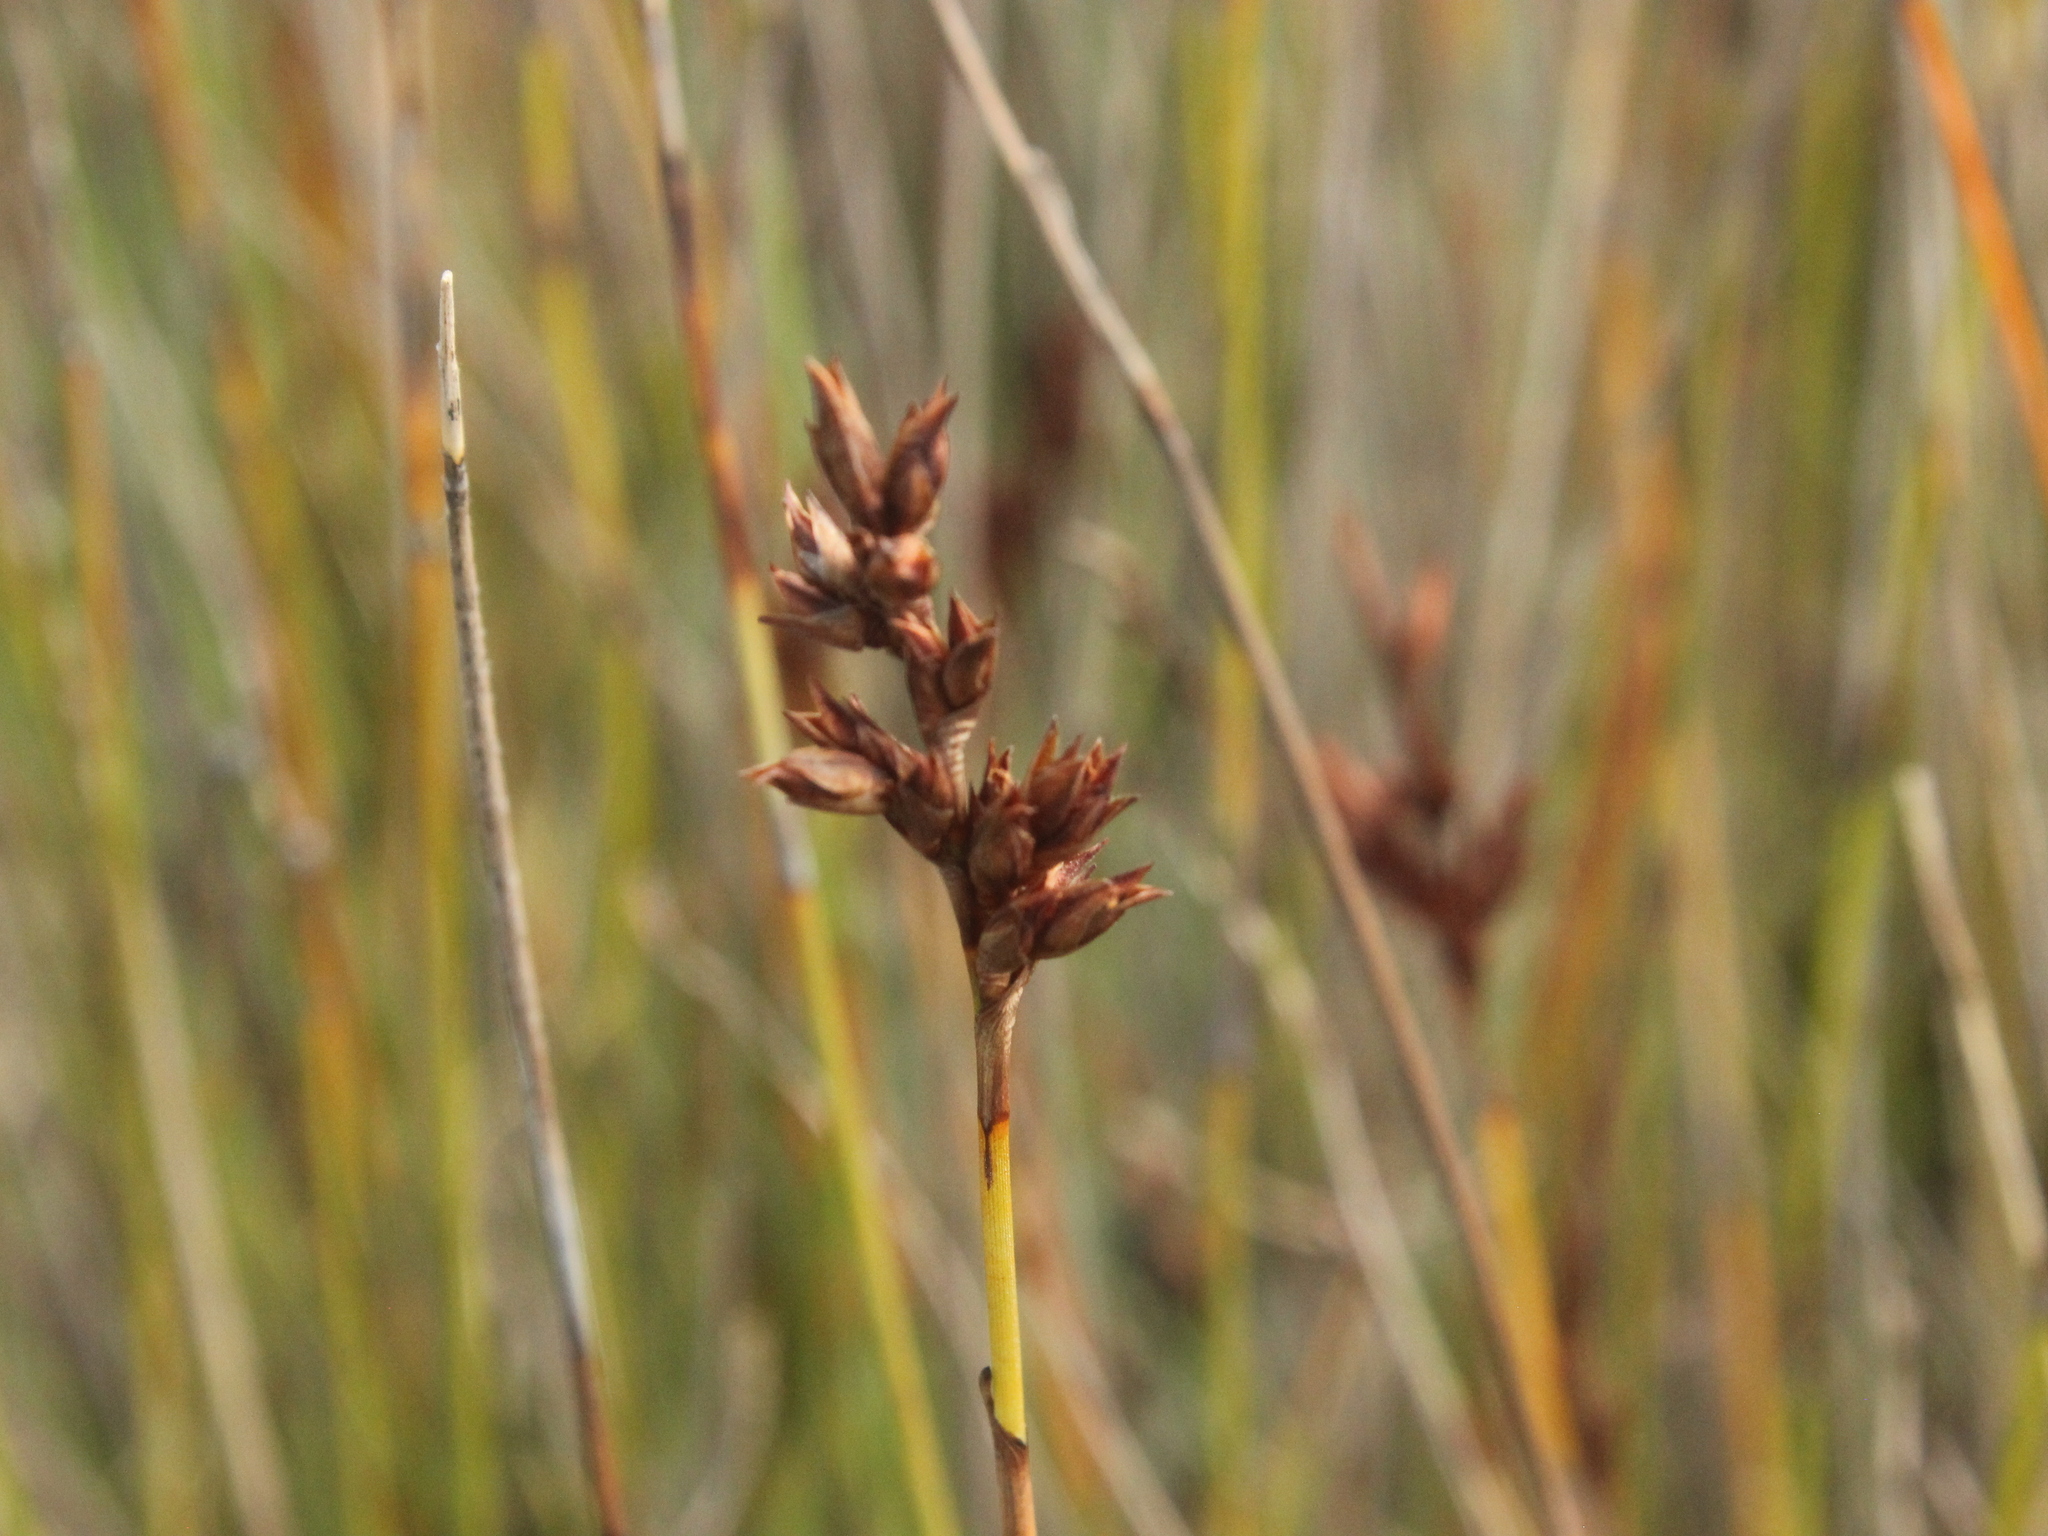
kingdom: Plantae
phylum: Tracheophyta
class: Liliopsida
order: Poales
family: Restionaceae
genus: Apodasmia
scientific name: Apodasmia similis
